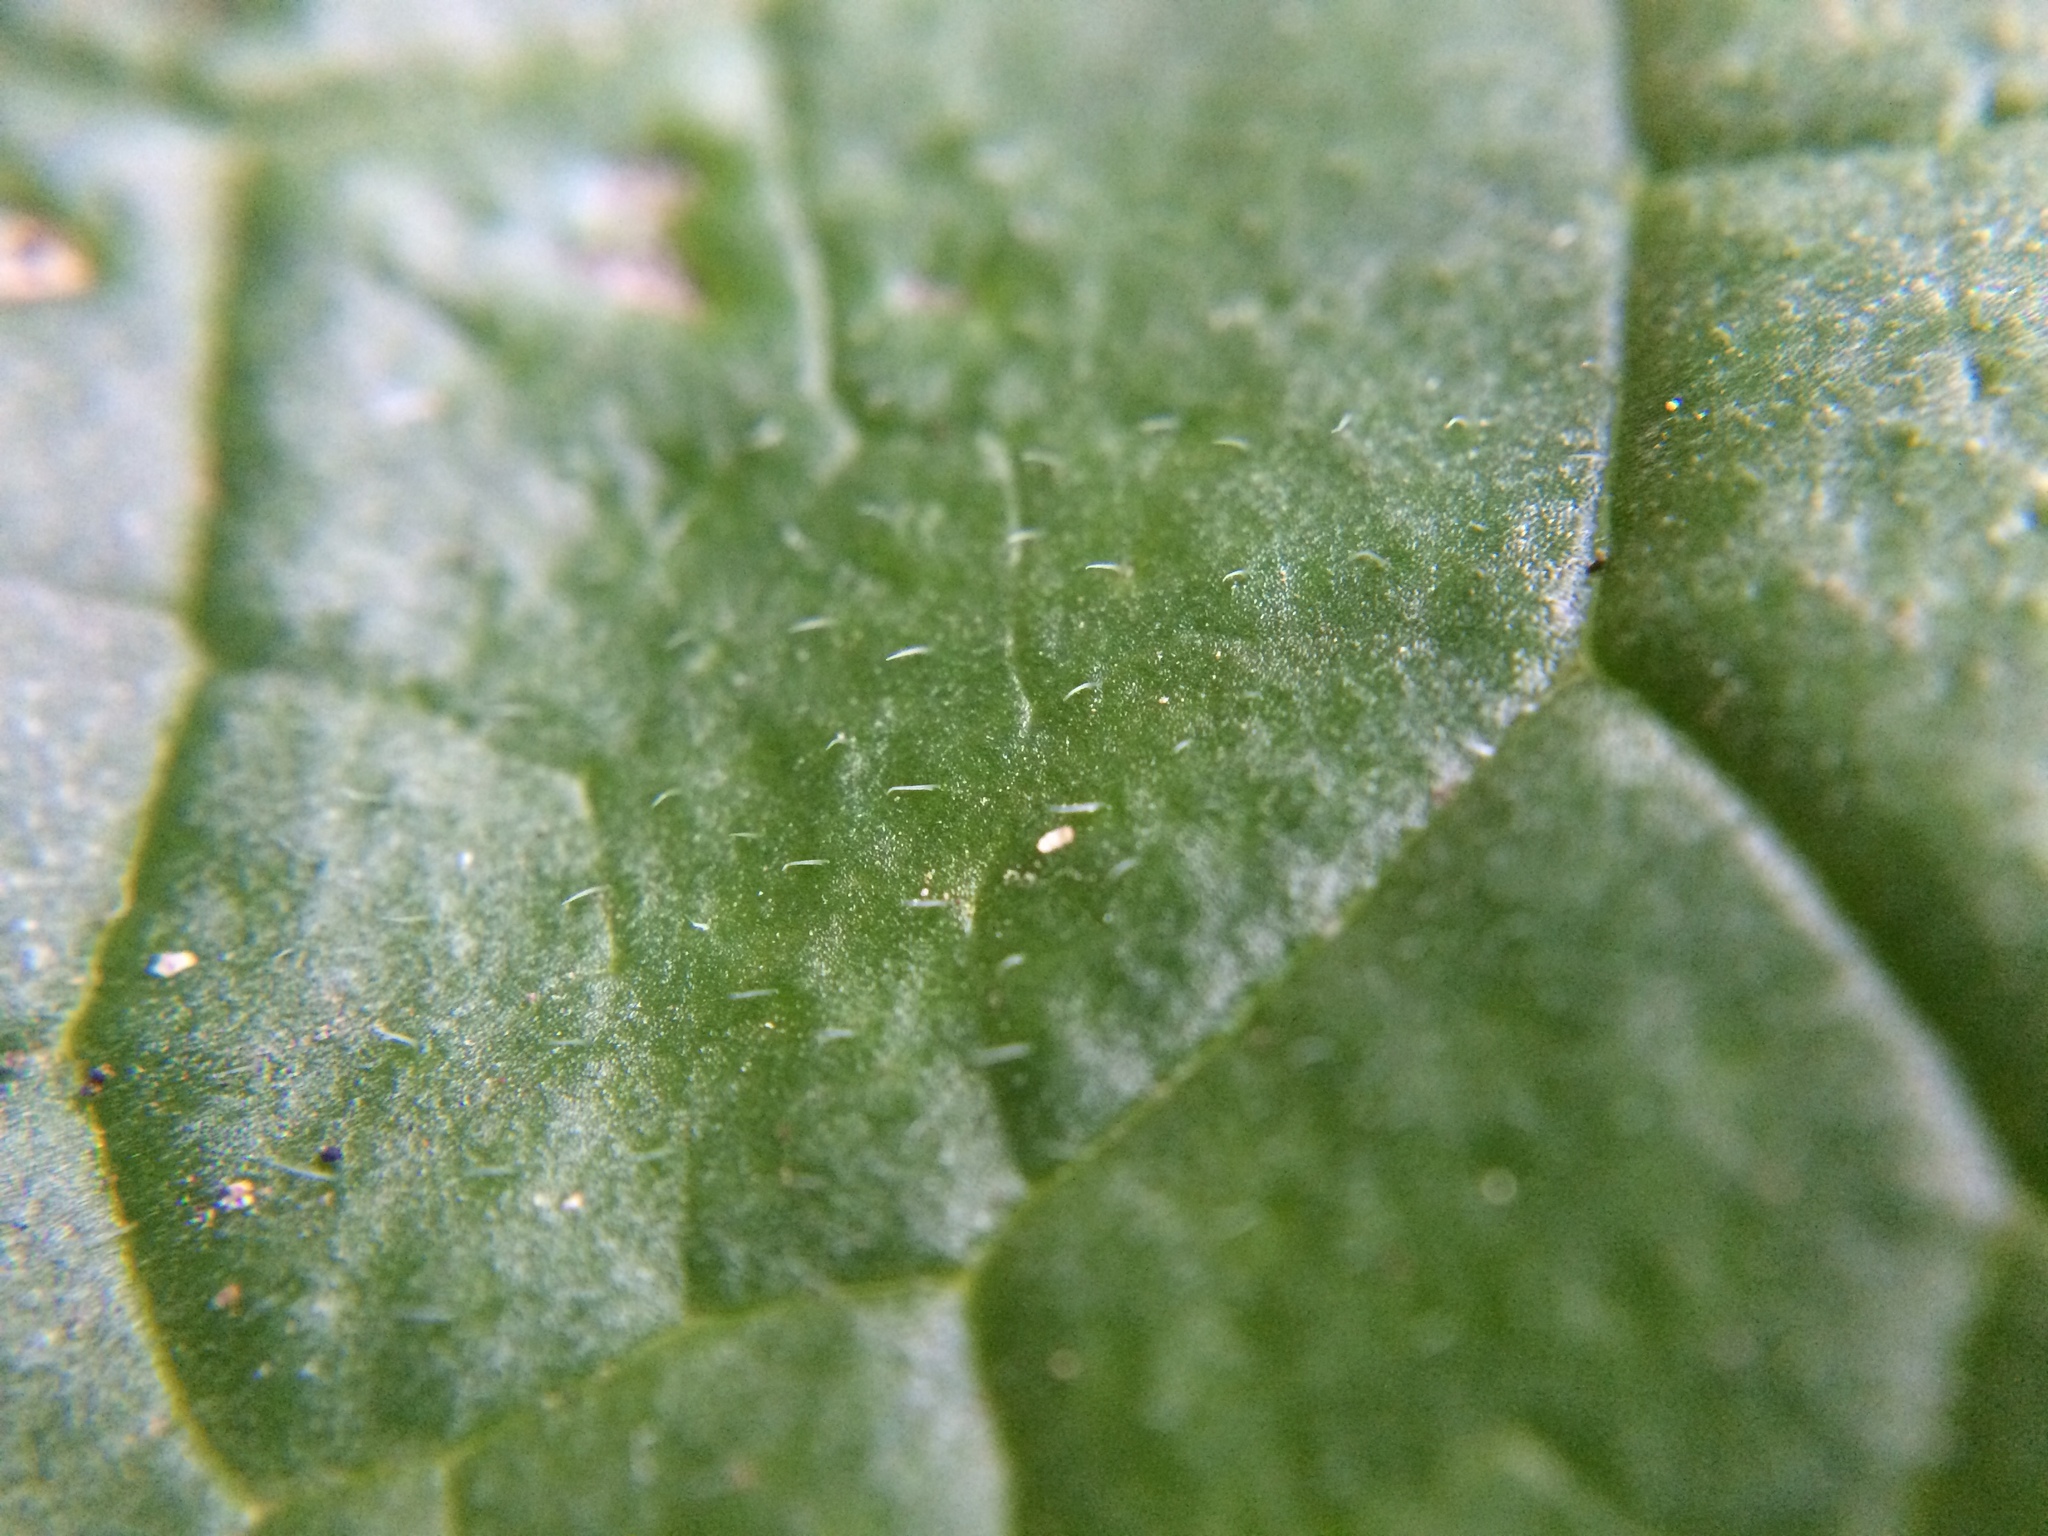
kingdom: Plantae
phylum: Tracheophyta
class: Magnoliopsida
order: Brassicales
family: Brassicaceae
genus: Lunaria
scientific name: Lunaria annua
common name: Honesty
